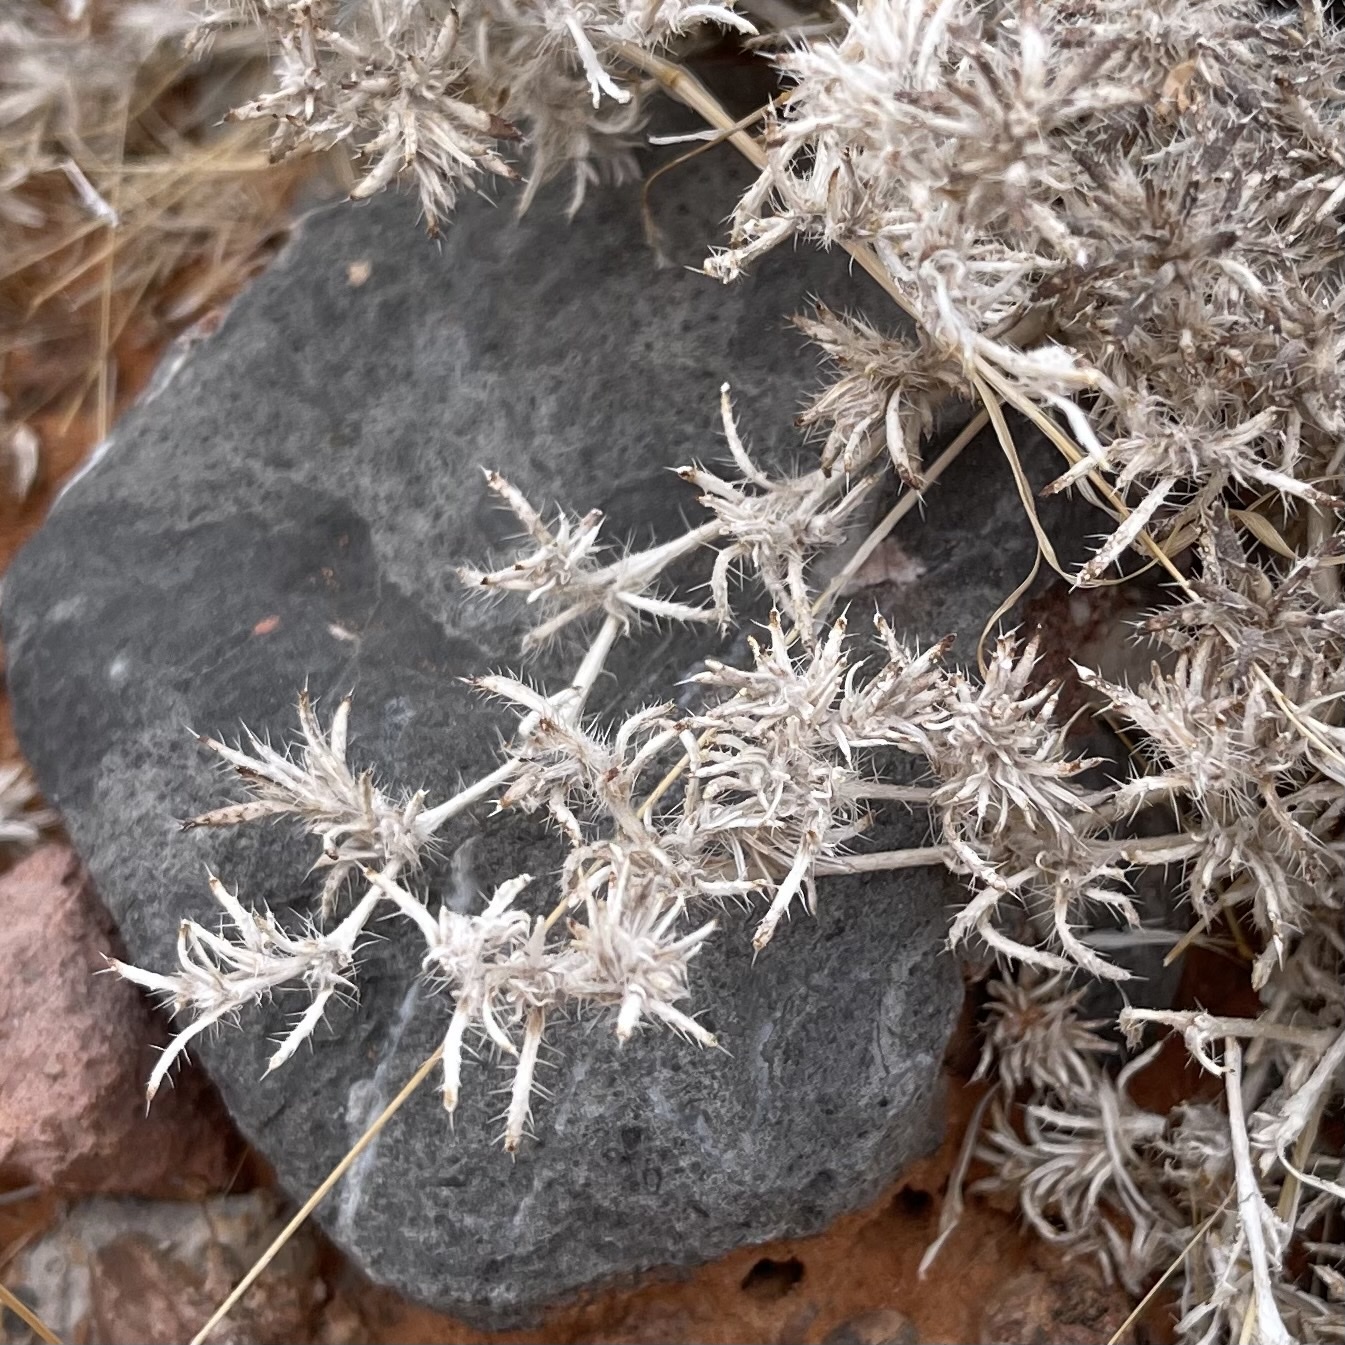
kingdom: Plantae
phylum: Tracheophyta
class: Magnoliopsida
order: Boraginales
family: Ehretiaceae
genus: Tiquilia
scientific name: Tiquilia latior
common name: Matted tiquilia
